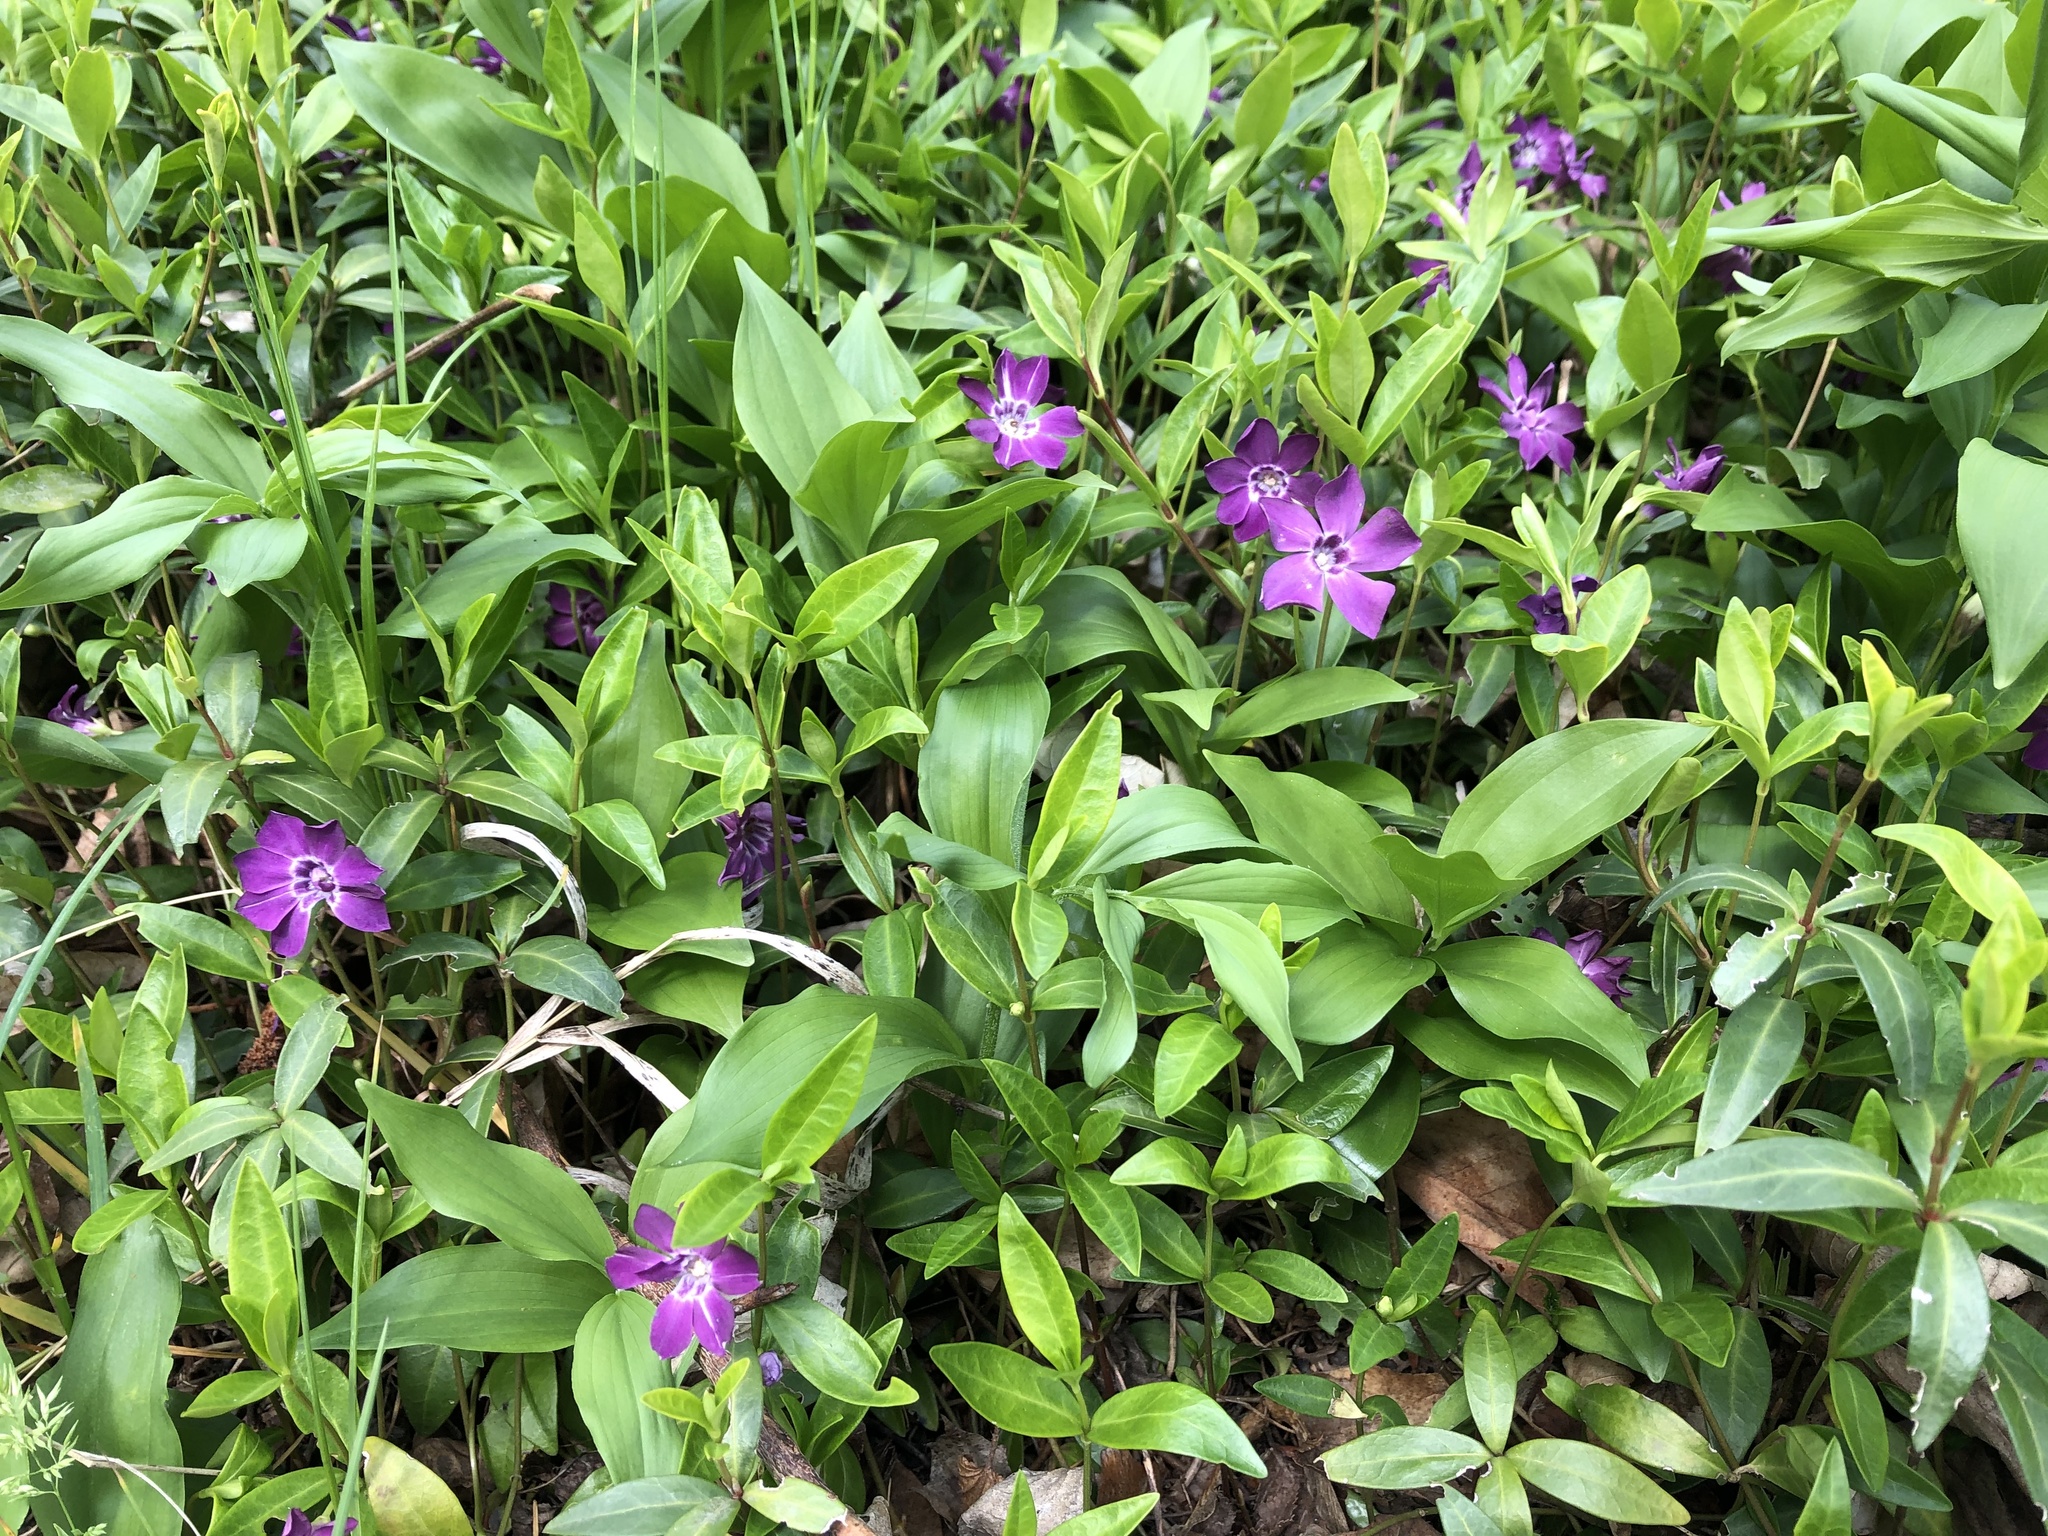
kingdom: Plantae
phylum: Tracheophyta
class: Magnoliopsida
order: Gentianales
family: Apocynaceae
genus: Vinca
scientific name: Vinca minor
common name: Lesser periwinkle
